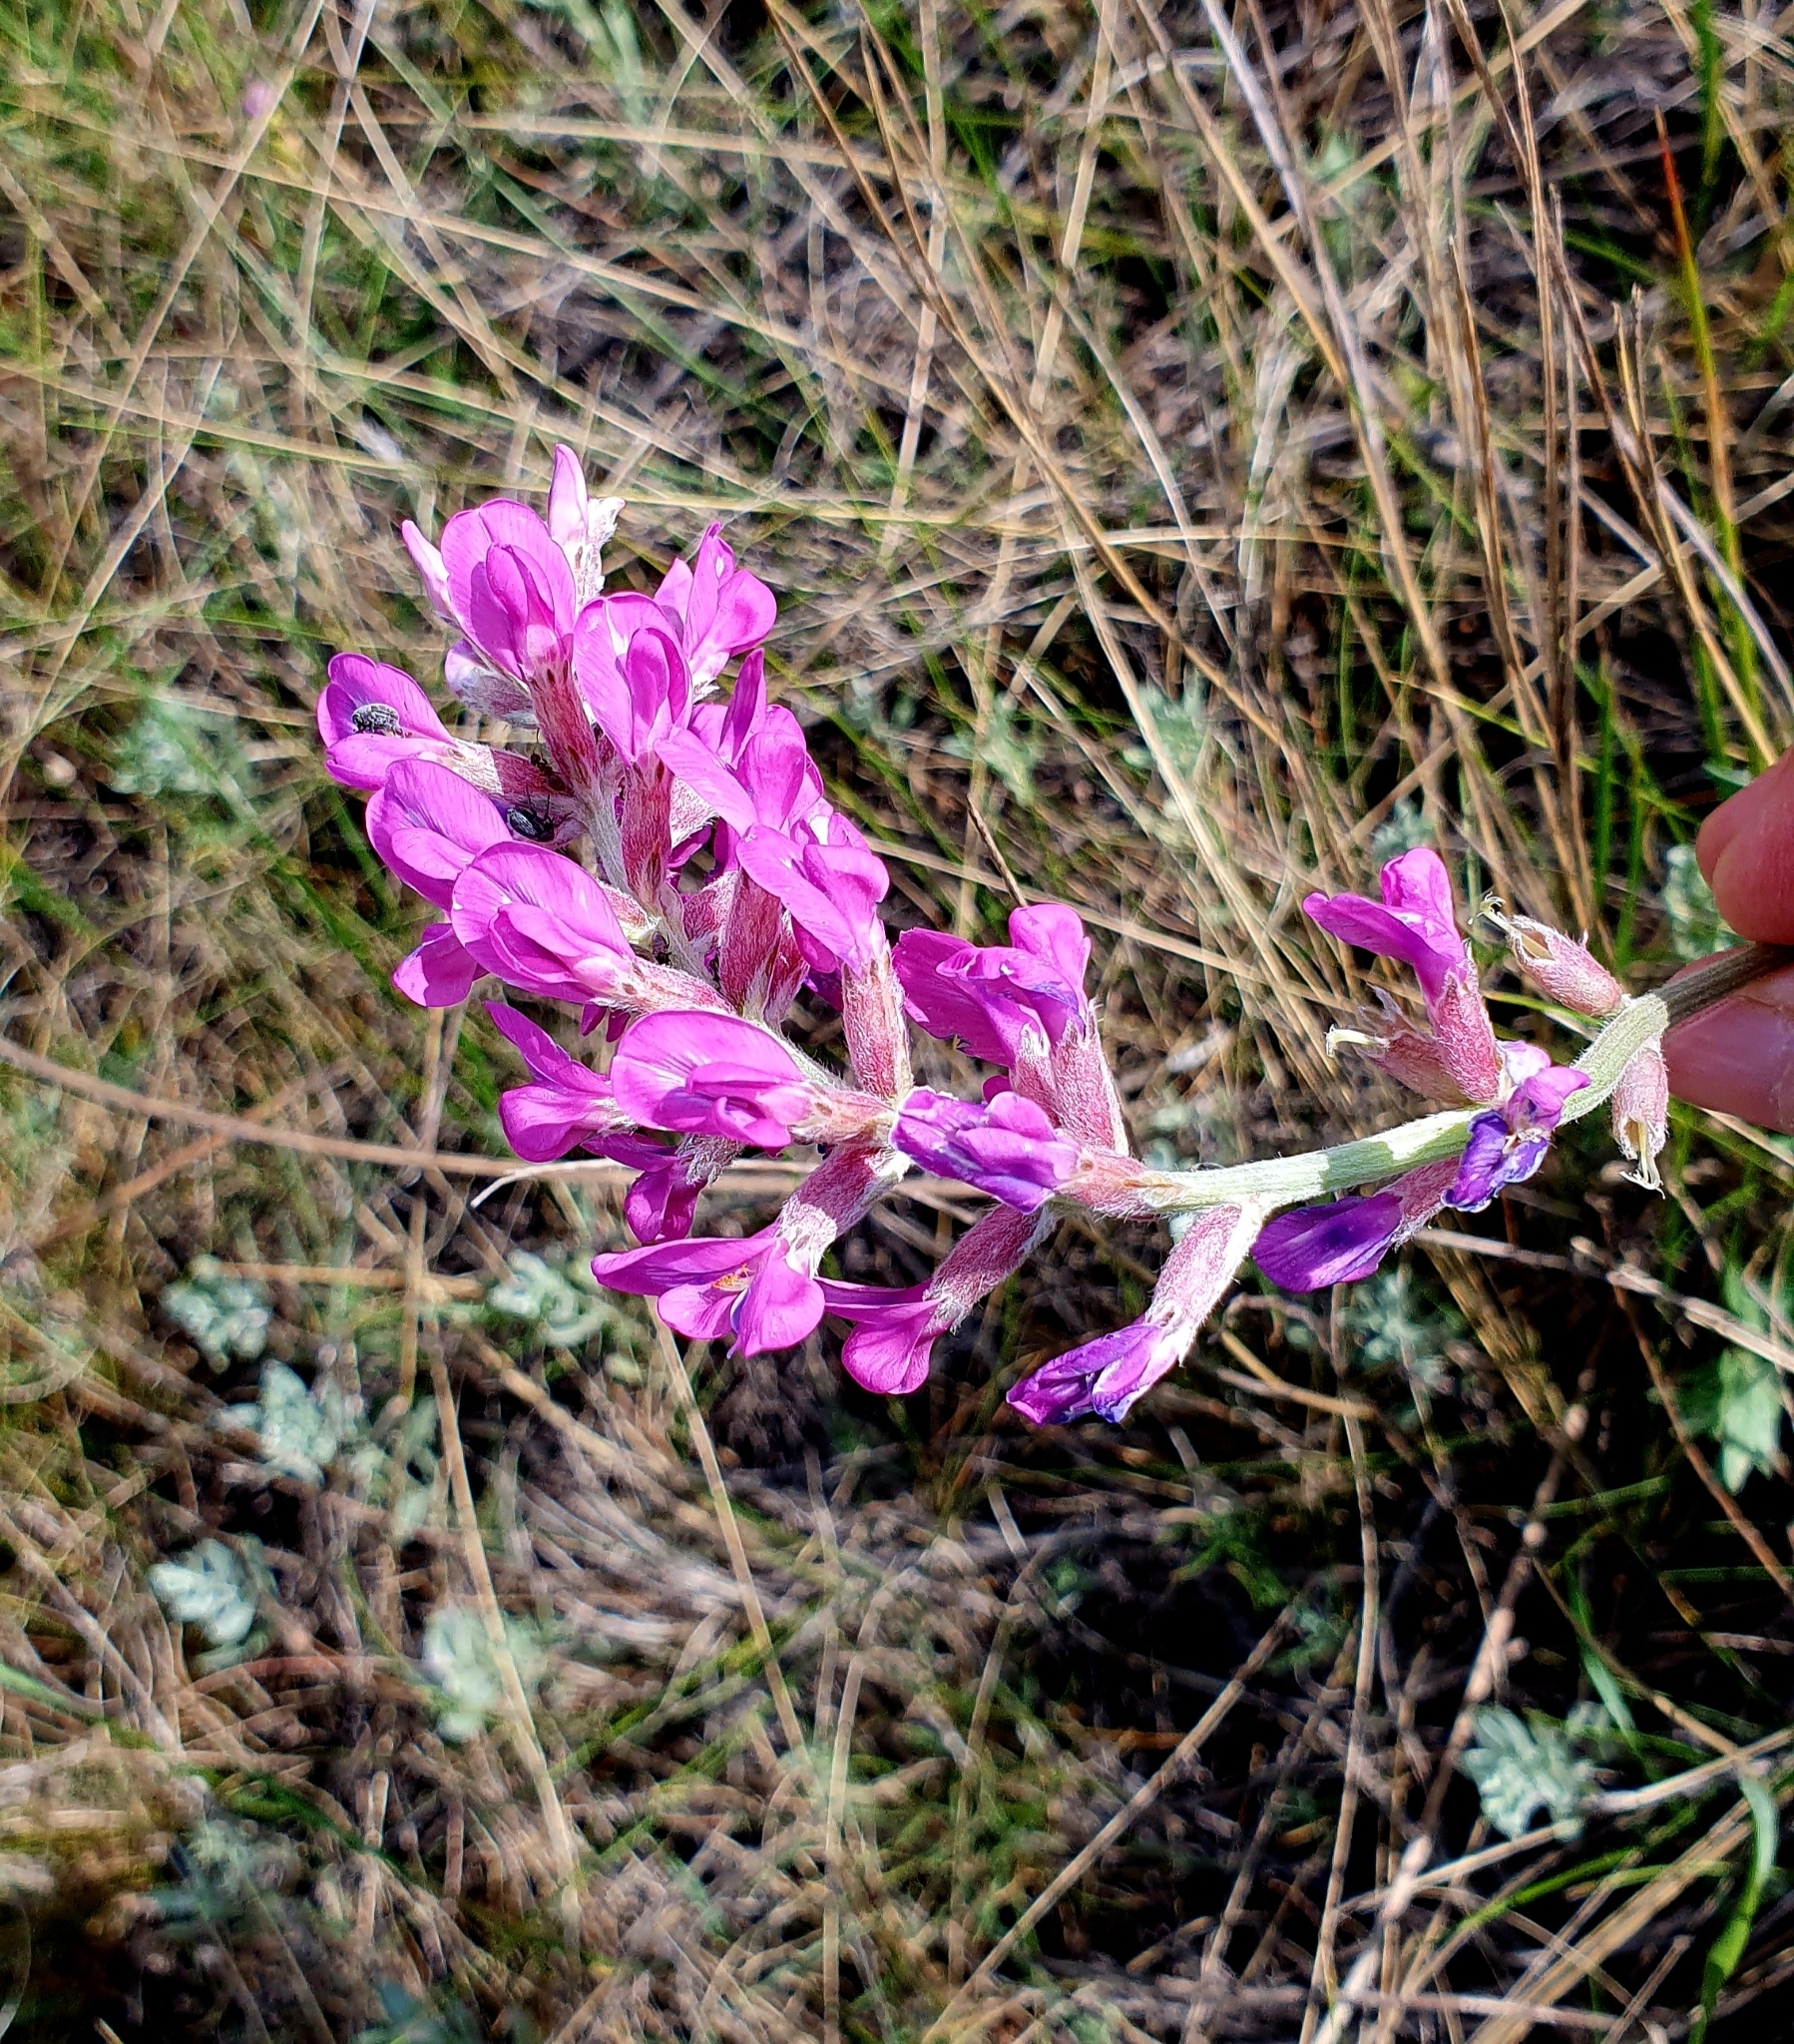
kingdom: Plantae
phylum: Tracheophyta
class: Magnoliopsida
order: Fabales
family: Fabaceae
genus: Oxytropis
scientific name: Oxytropis knjazevii
